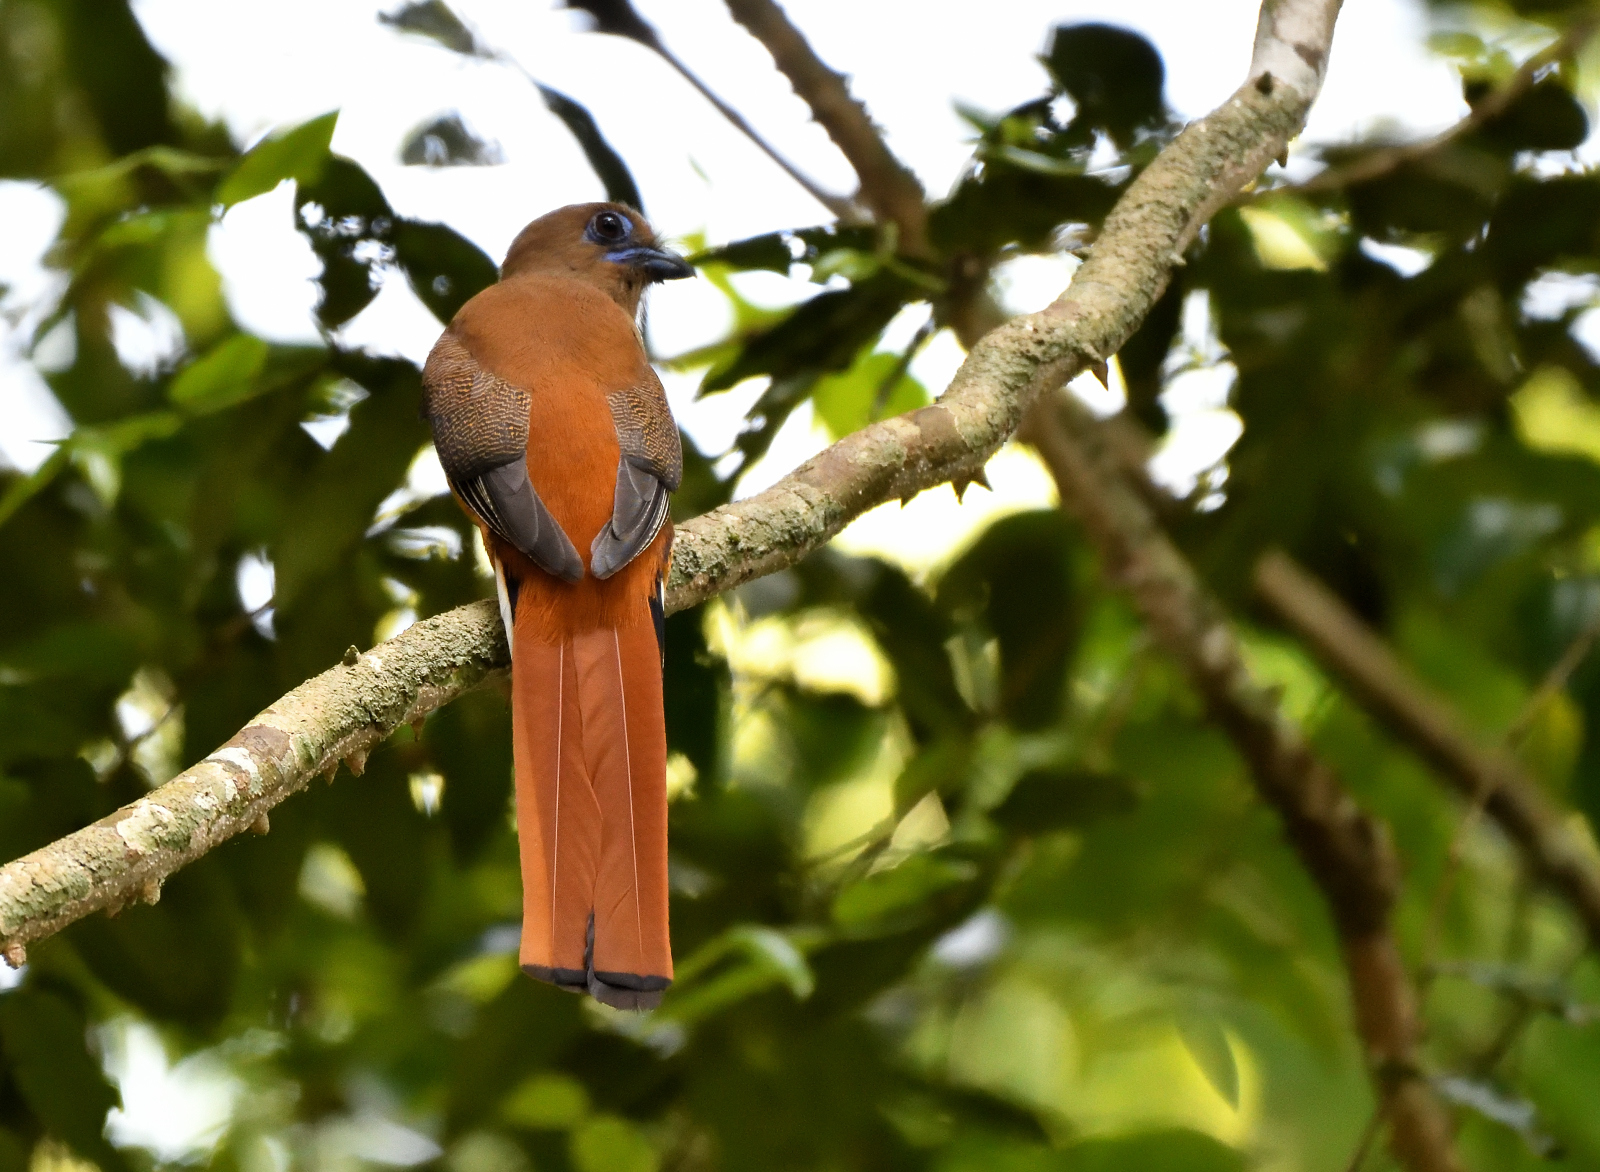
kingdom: Animalia
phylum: Chordata
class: Aves
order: Trogoniformes
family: Trogonidae
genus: Harpactes
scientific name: Harpactes fasciatus
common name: Malabar trogon
